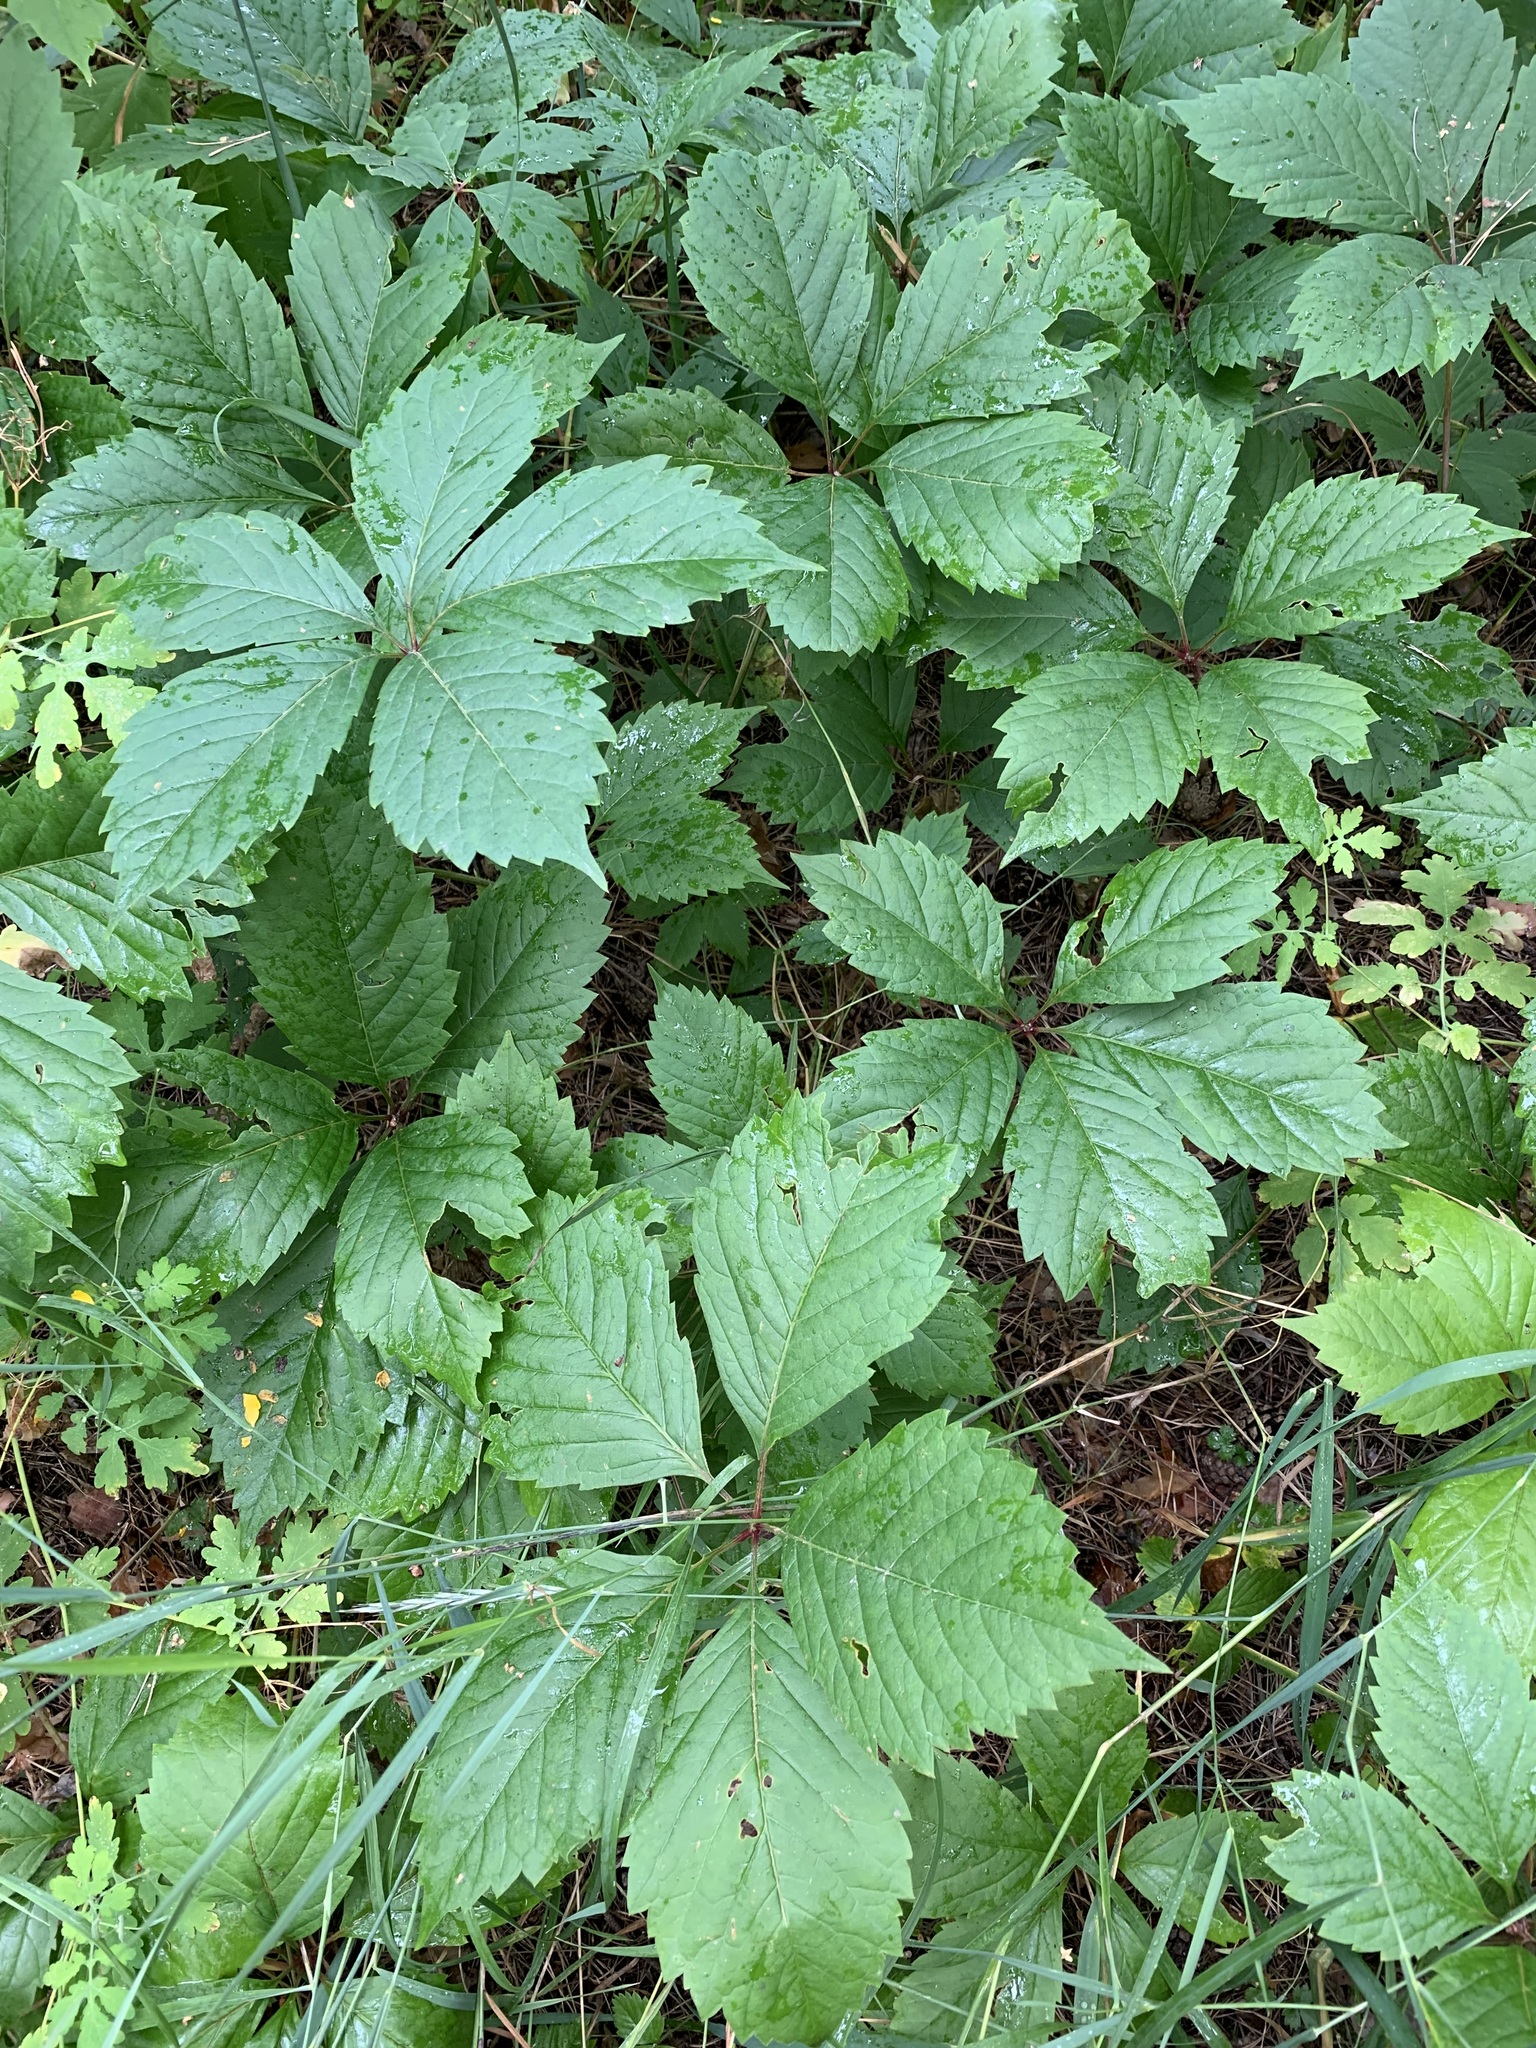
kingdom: Plantae
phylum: Tracheophyta
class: Magnoliopsida
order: Vitales
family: Vitaceae
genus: Parthenocissus
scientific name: Parthenocissus inserta
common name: False virginia-creeper
